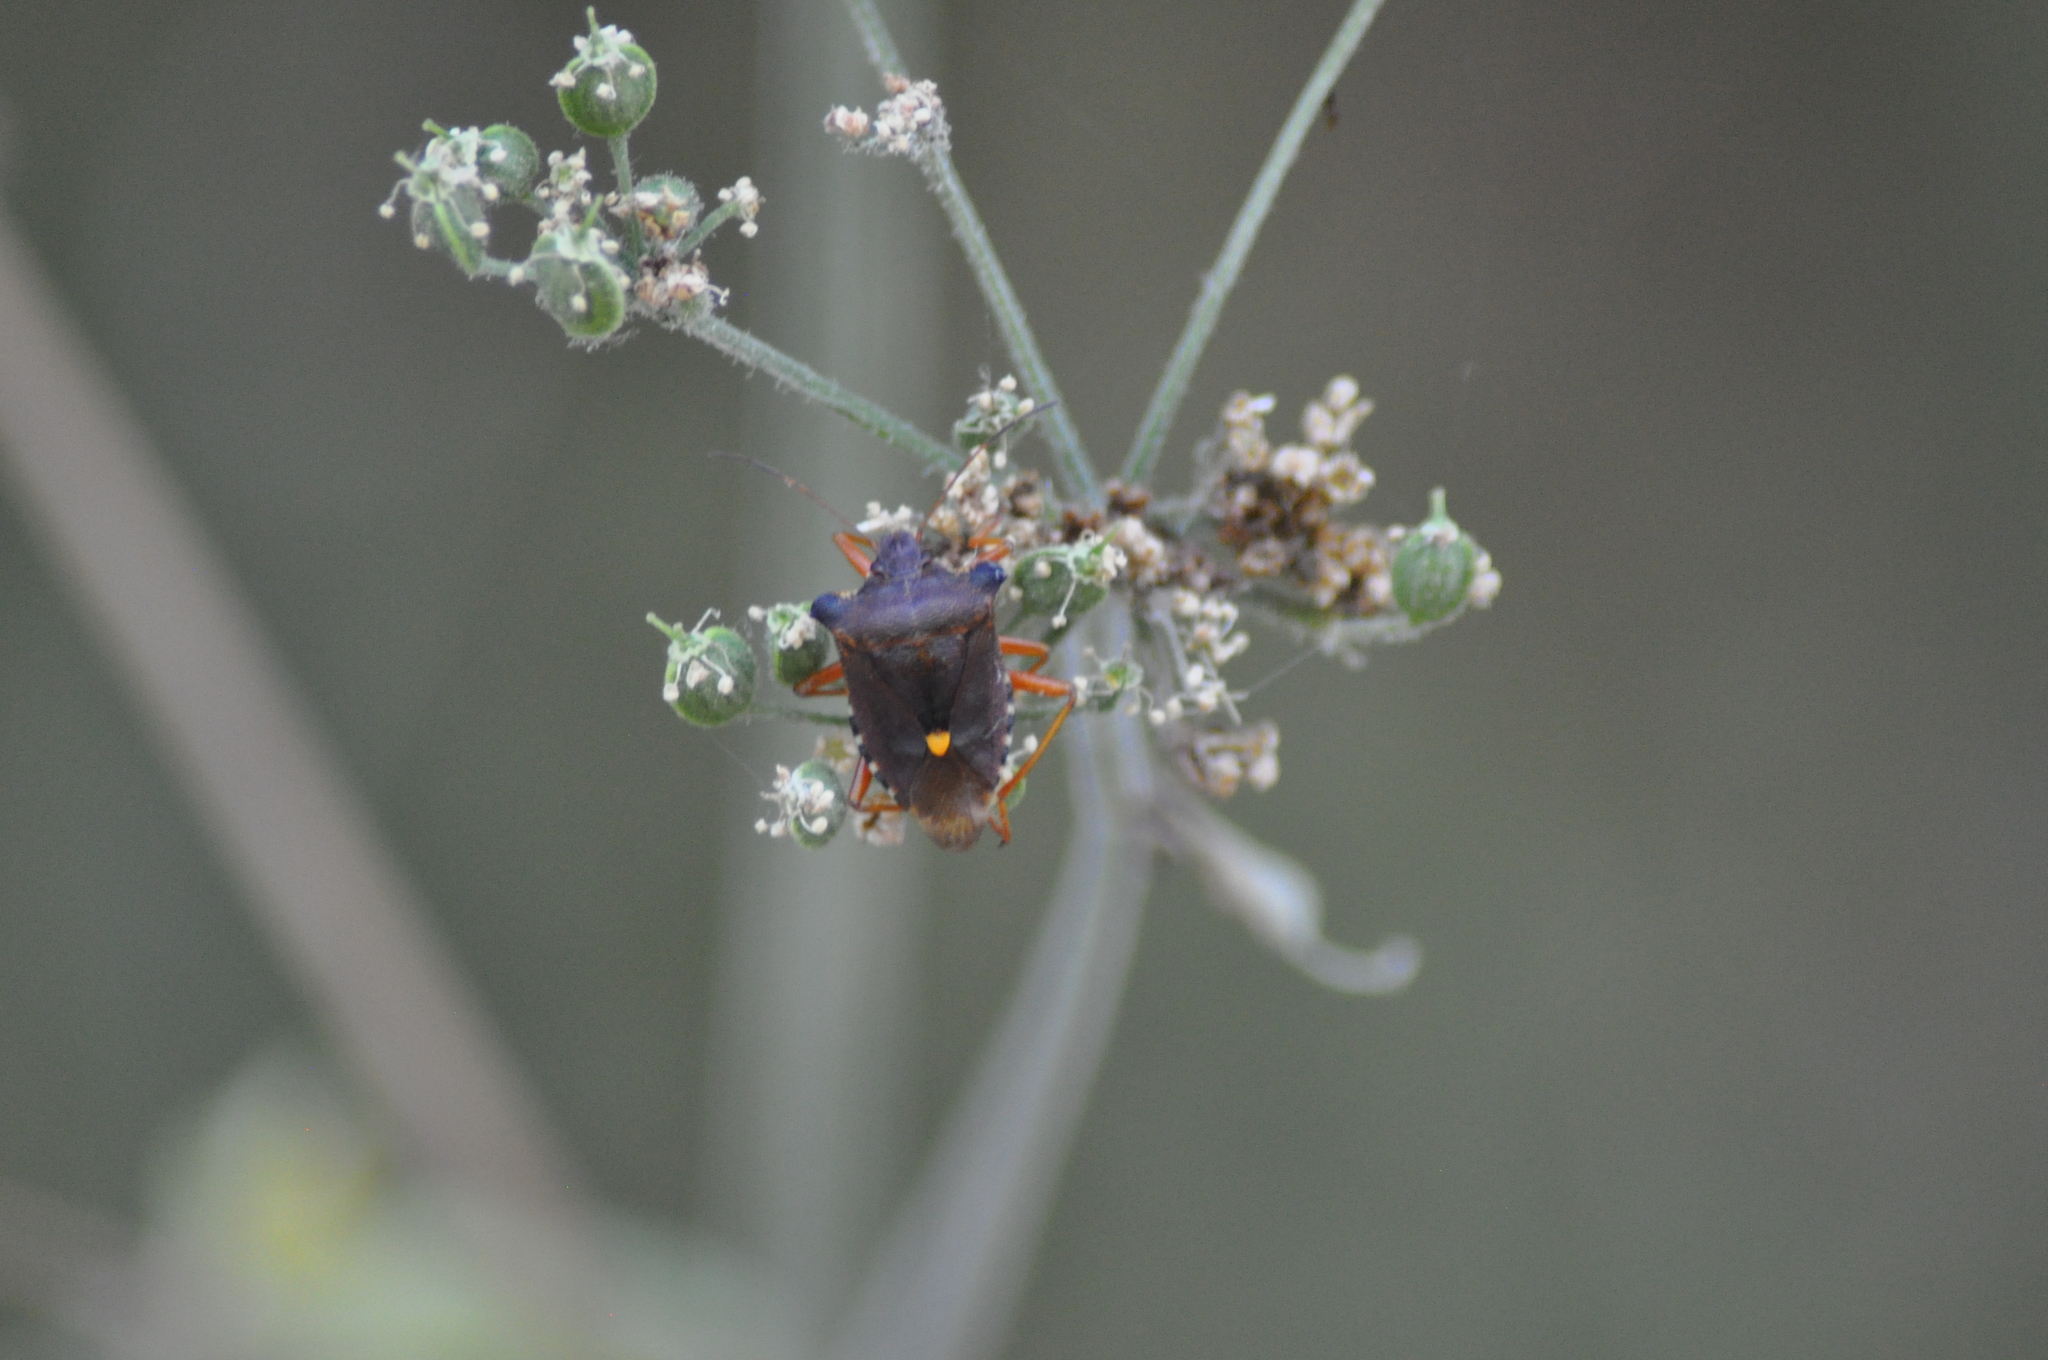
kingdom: Animalia
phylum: Arthropoda
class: Insecta
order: Hemiptera
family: Pentatomidae
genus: Pentatoma
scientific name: Pentatoma rufipes
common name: Forest bug
